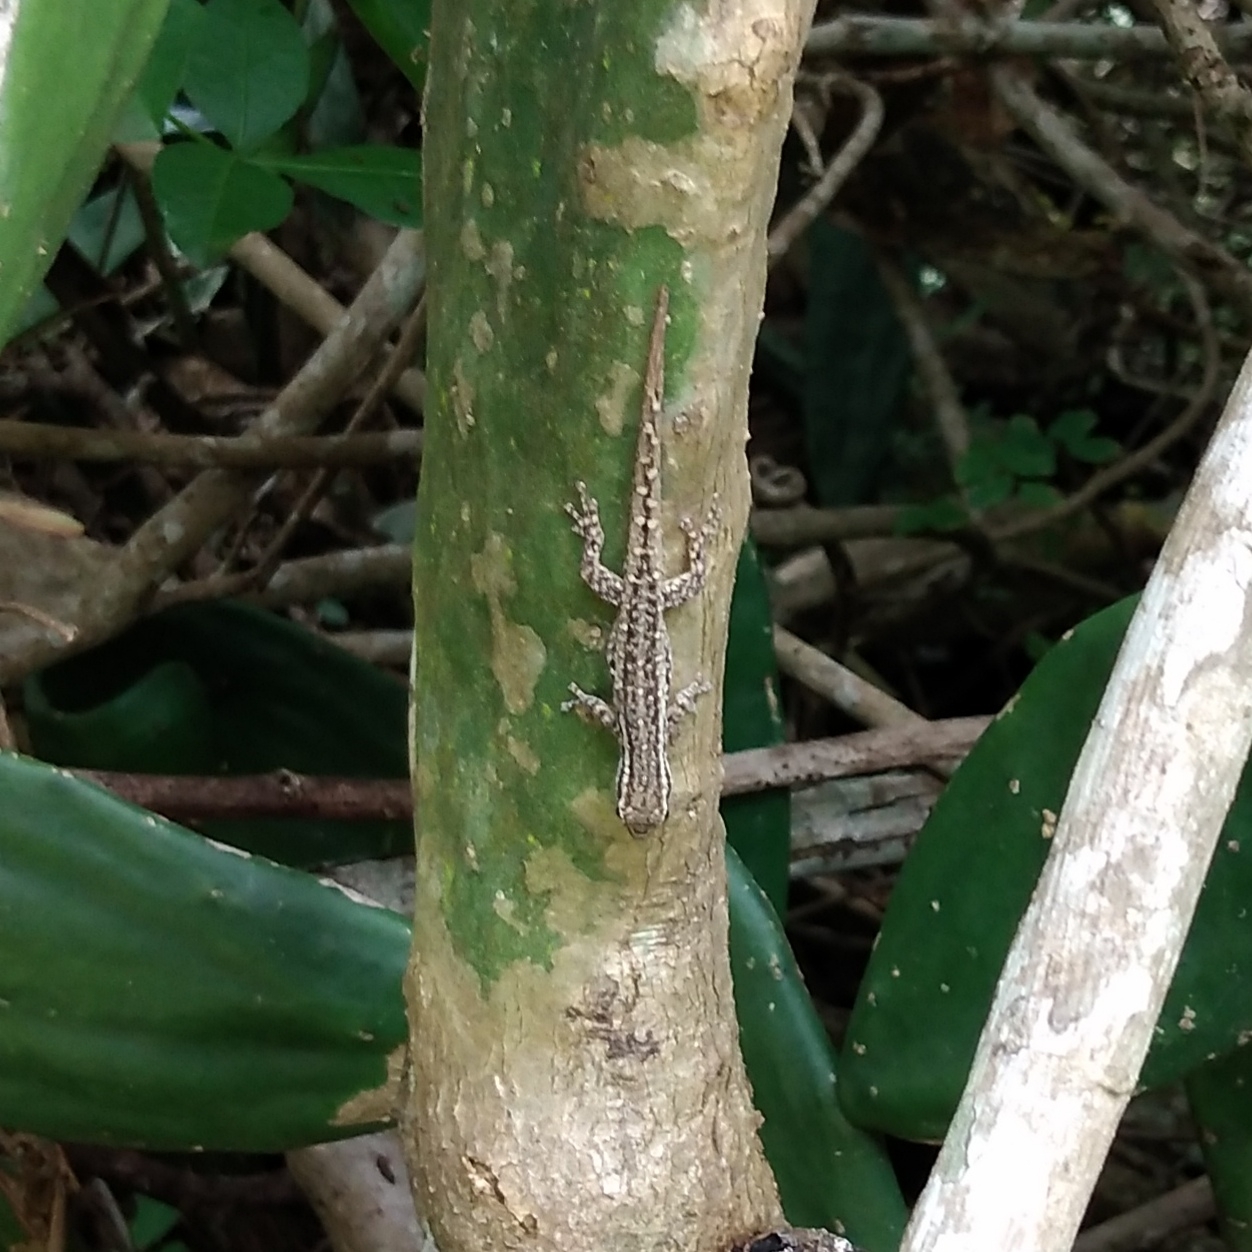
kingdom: Animalia
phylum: Chordata
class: Squamata
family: Gekkonidae
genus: Lygodactylus
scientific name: Lygodactylus capensis
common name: Cape dwarf gecko
